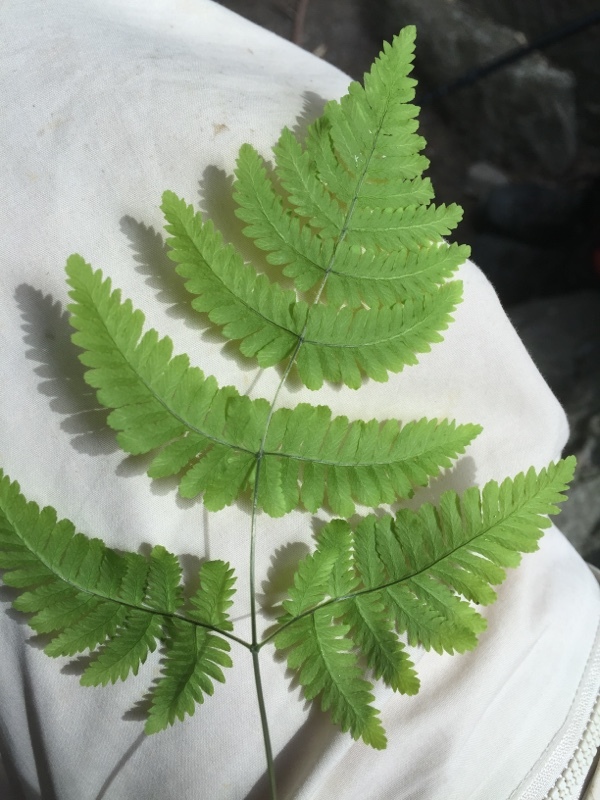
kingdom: Plantae
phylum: Tracheophyta
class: Polypodiopsida
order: Polypodiales
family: Cystopteridaceae
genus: Gymnocarpium
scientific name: Gymnocarpium dryopteris
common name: Oak fern
